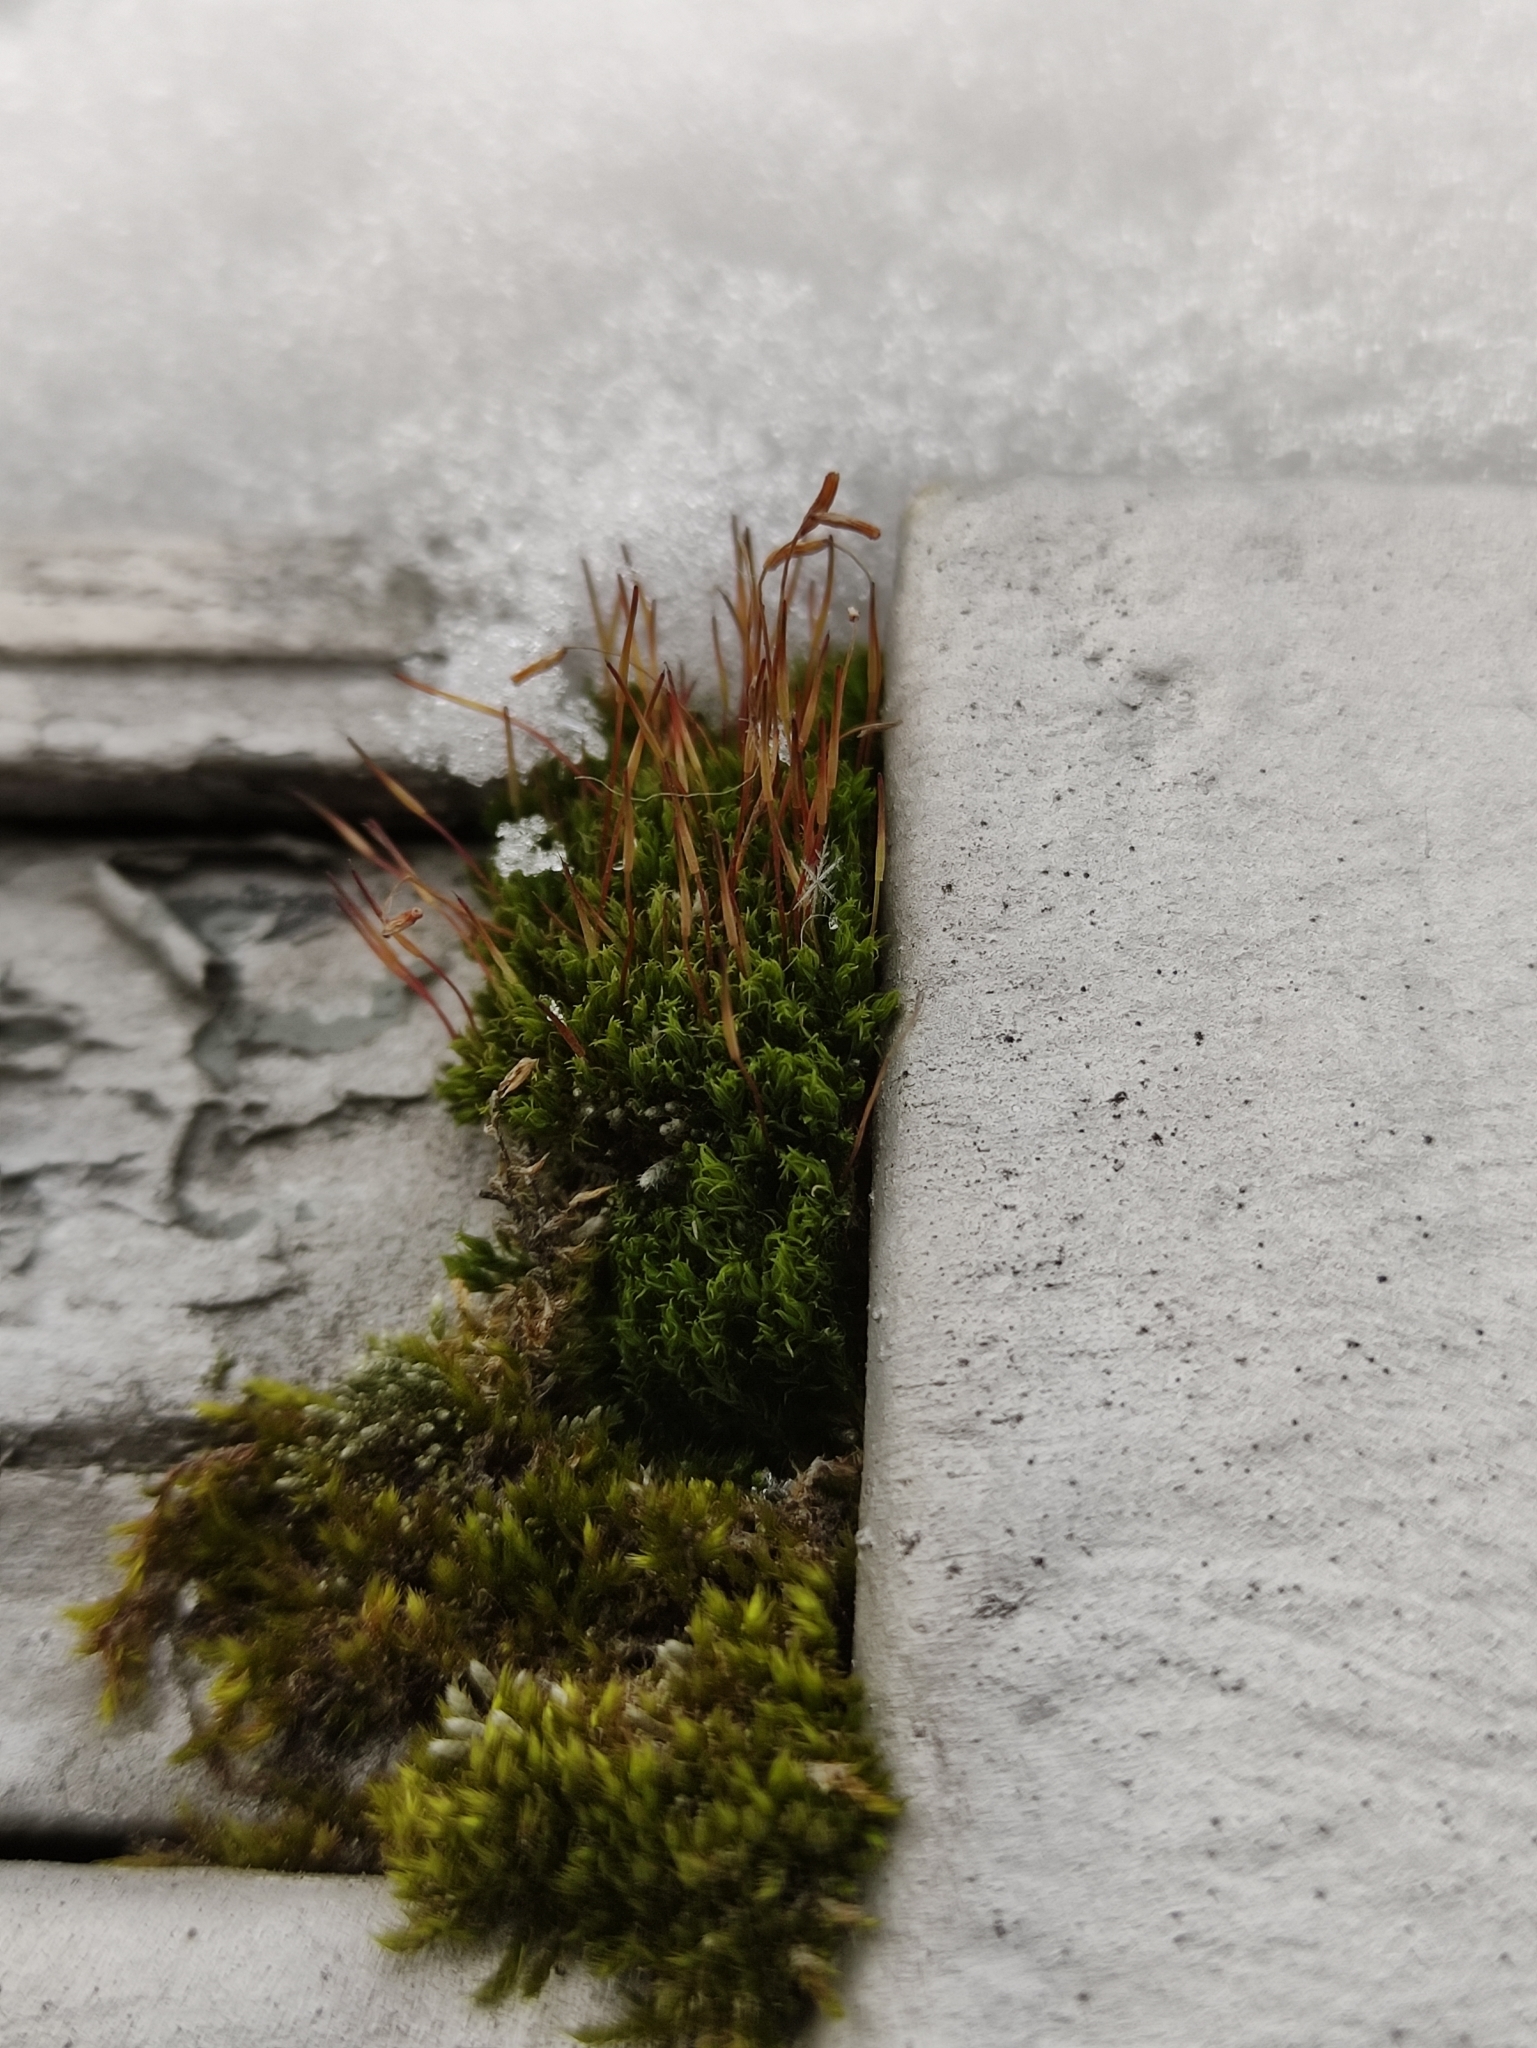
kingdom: Plantae
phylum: Bryophyta
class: Bryopsida
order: Dicranales
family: Ditrichaceae
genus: Ceratodon
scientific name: Ceratodon purpureus
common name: Redshank
